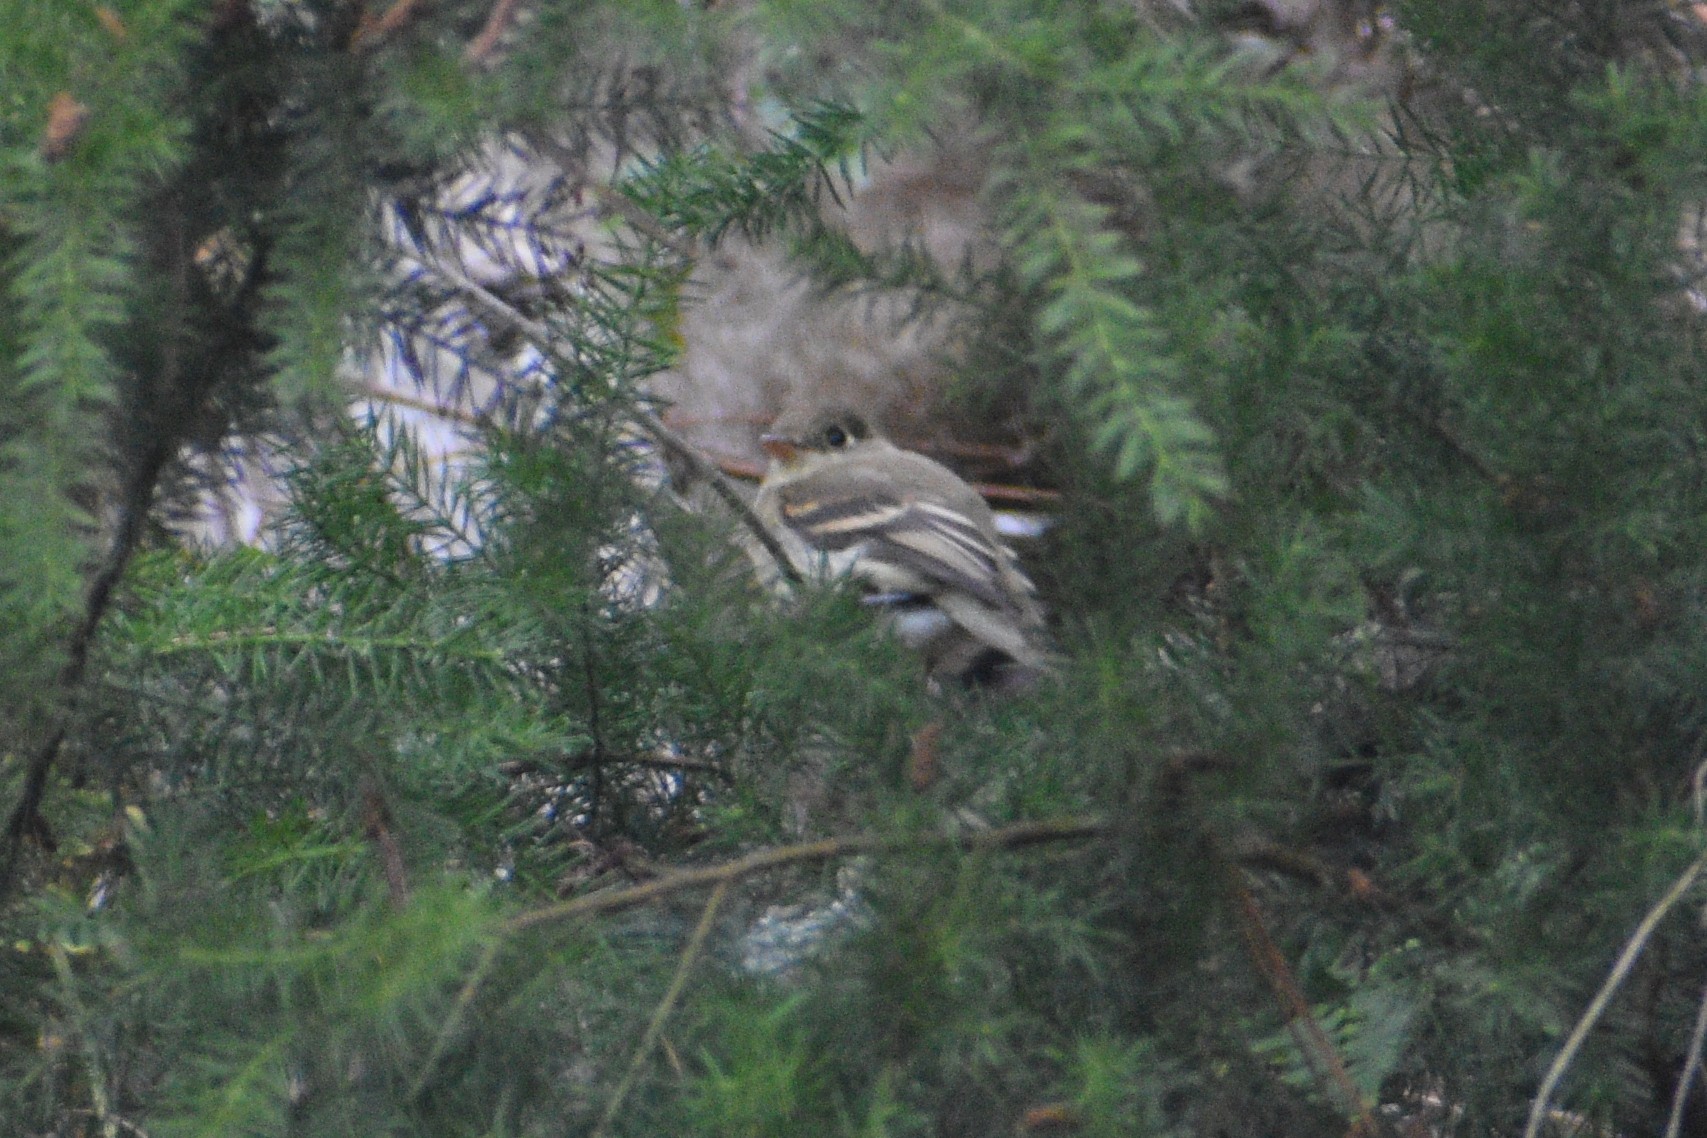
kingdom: Animalia
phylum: Chordata
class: Aves
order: Passeriformes
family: Tyrannidae
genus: Empidonax
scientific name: Empidonax difficilis
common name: Pacific-slope flycatcher
